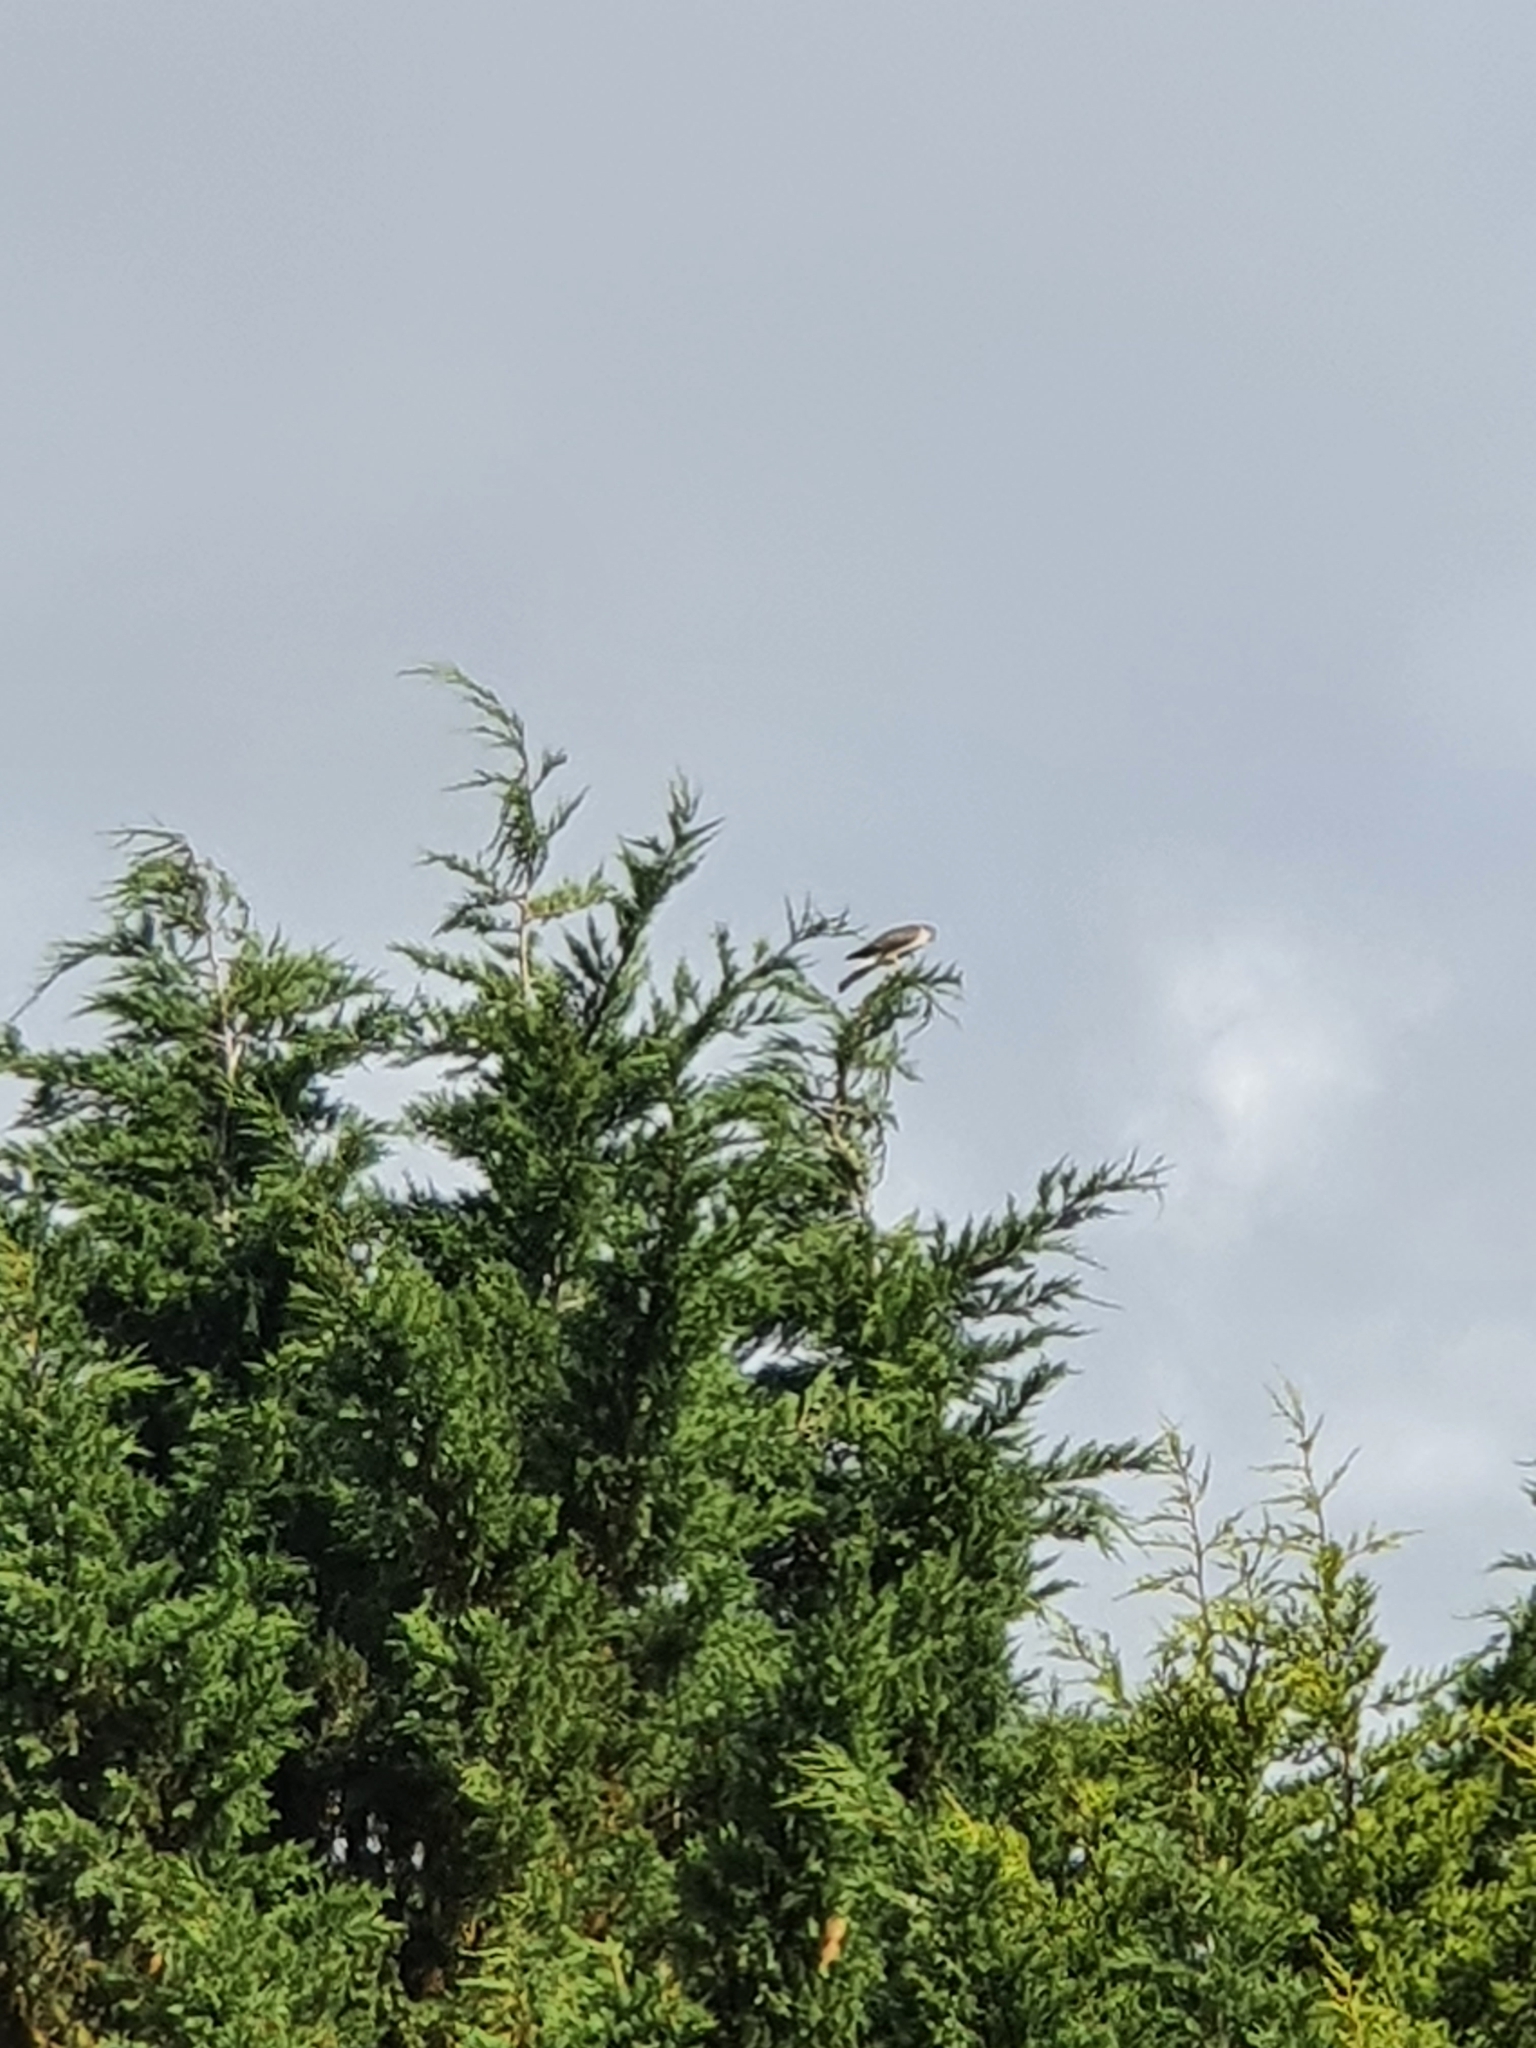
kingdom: Animalia
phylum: Chordata
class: Aves
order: Accipitriformes
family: Accipitridae
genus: Accipiter
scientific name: Accipiter nisus
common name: Eurasian sparrowhawk
